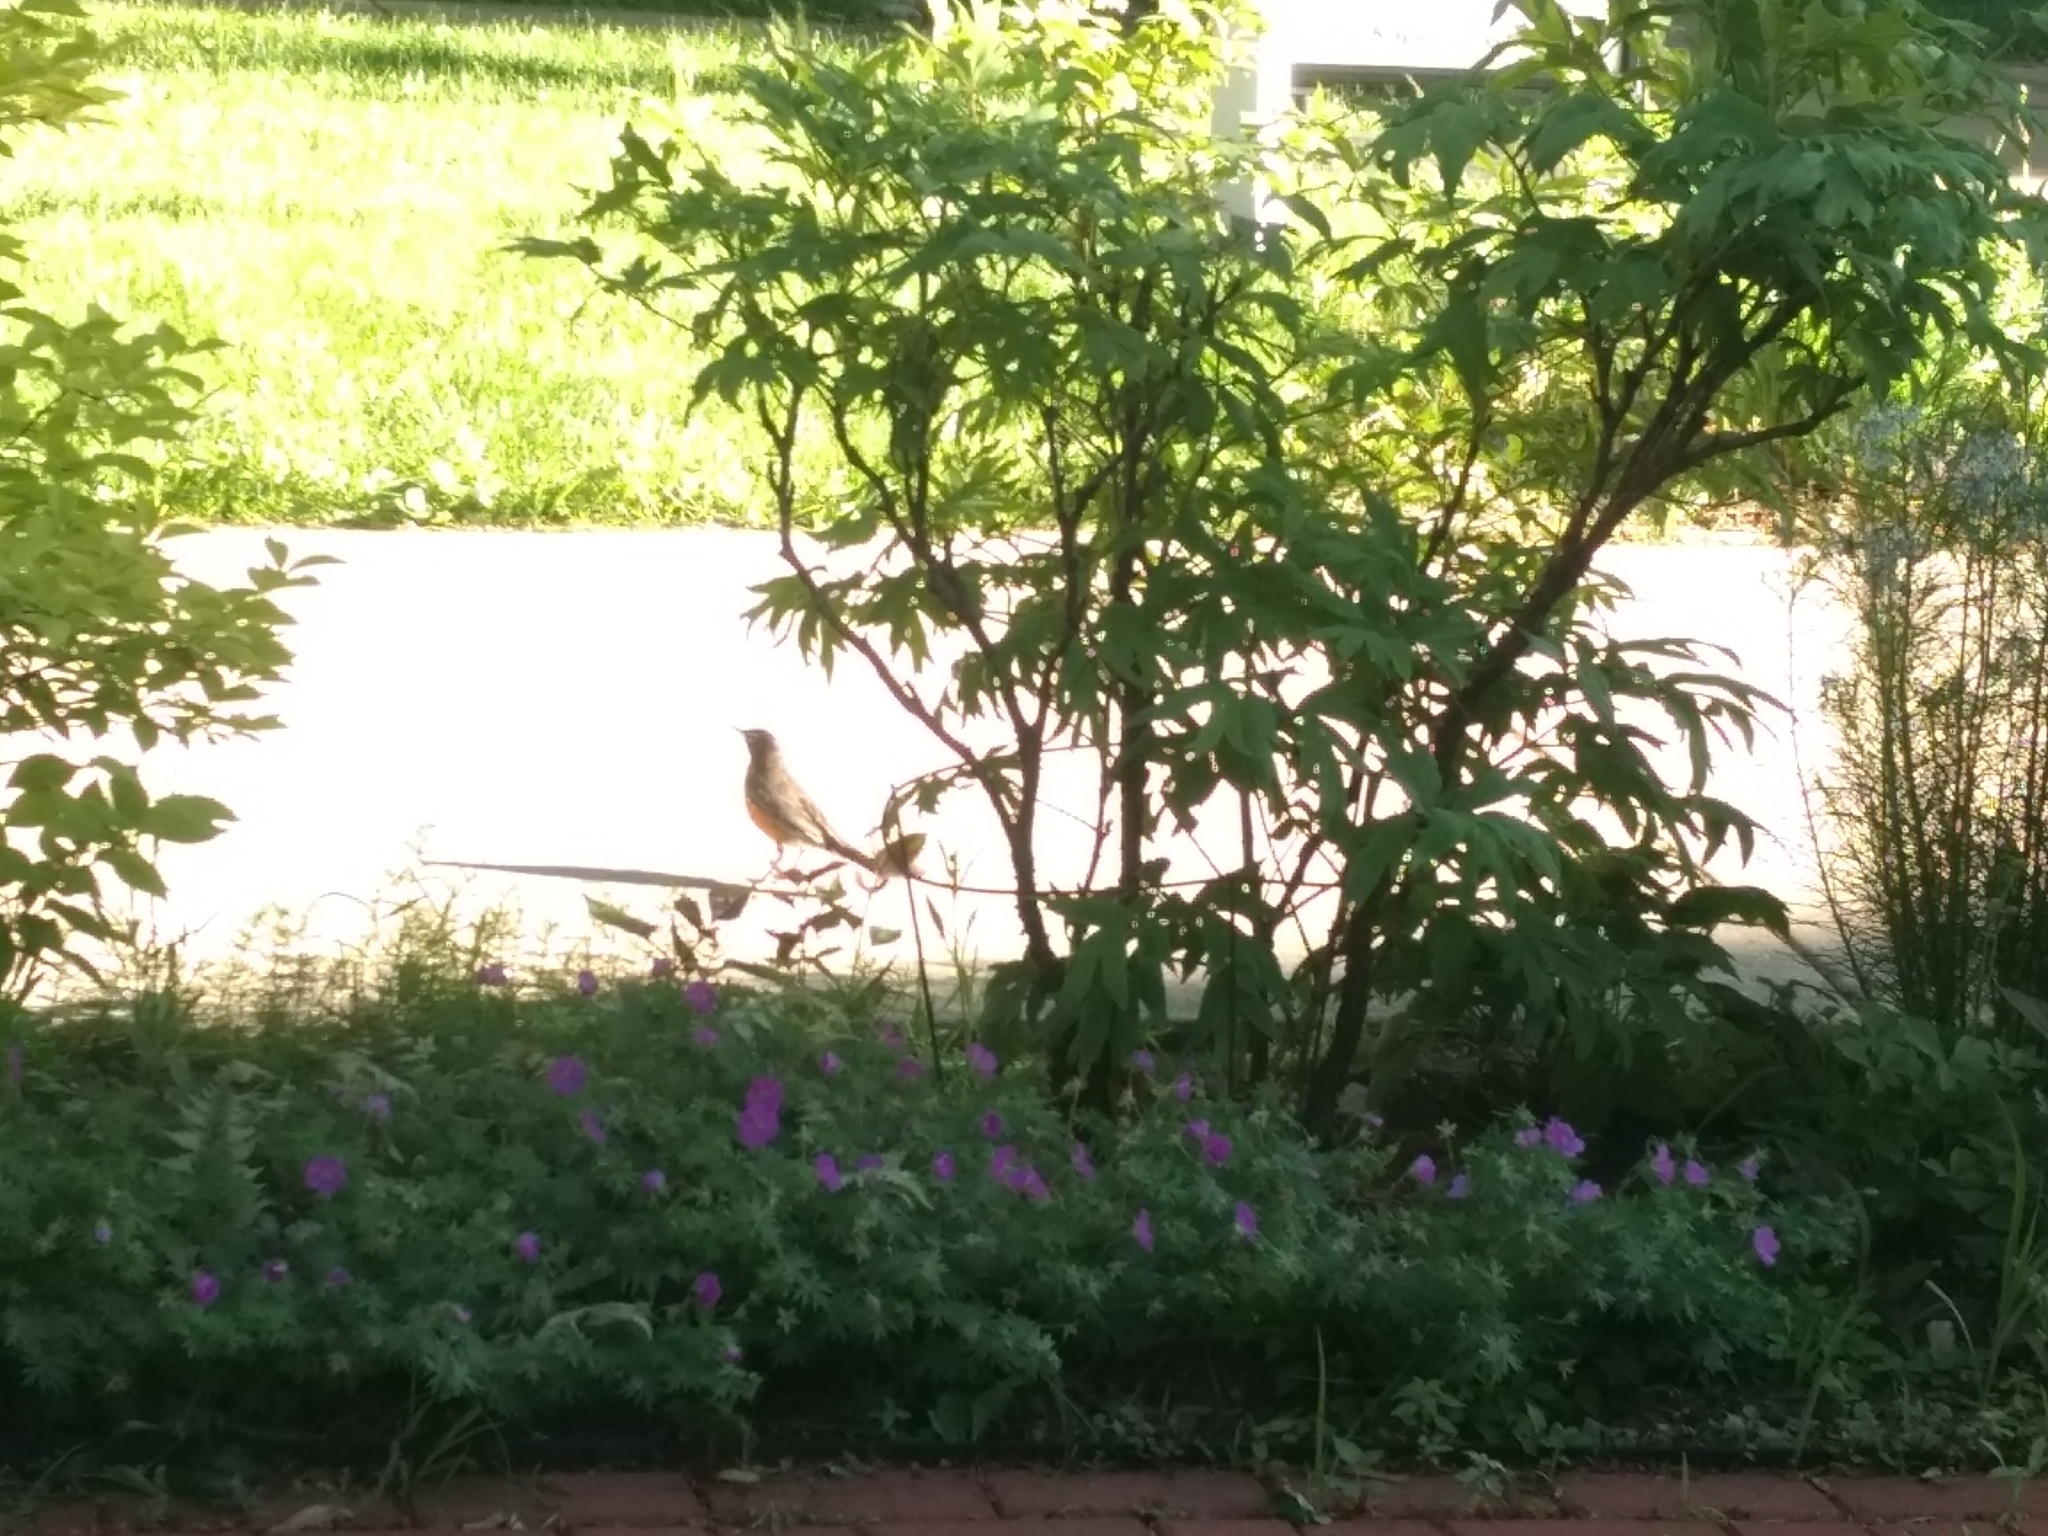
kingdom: Animalia
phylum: Chordata
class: Aves
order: Passeriformes
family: Turdidae
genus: Turdus
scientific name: Turdus migratorius
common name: American robin
